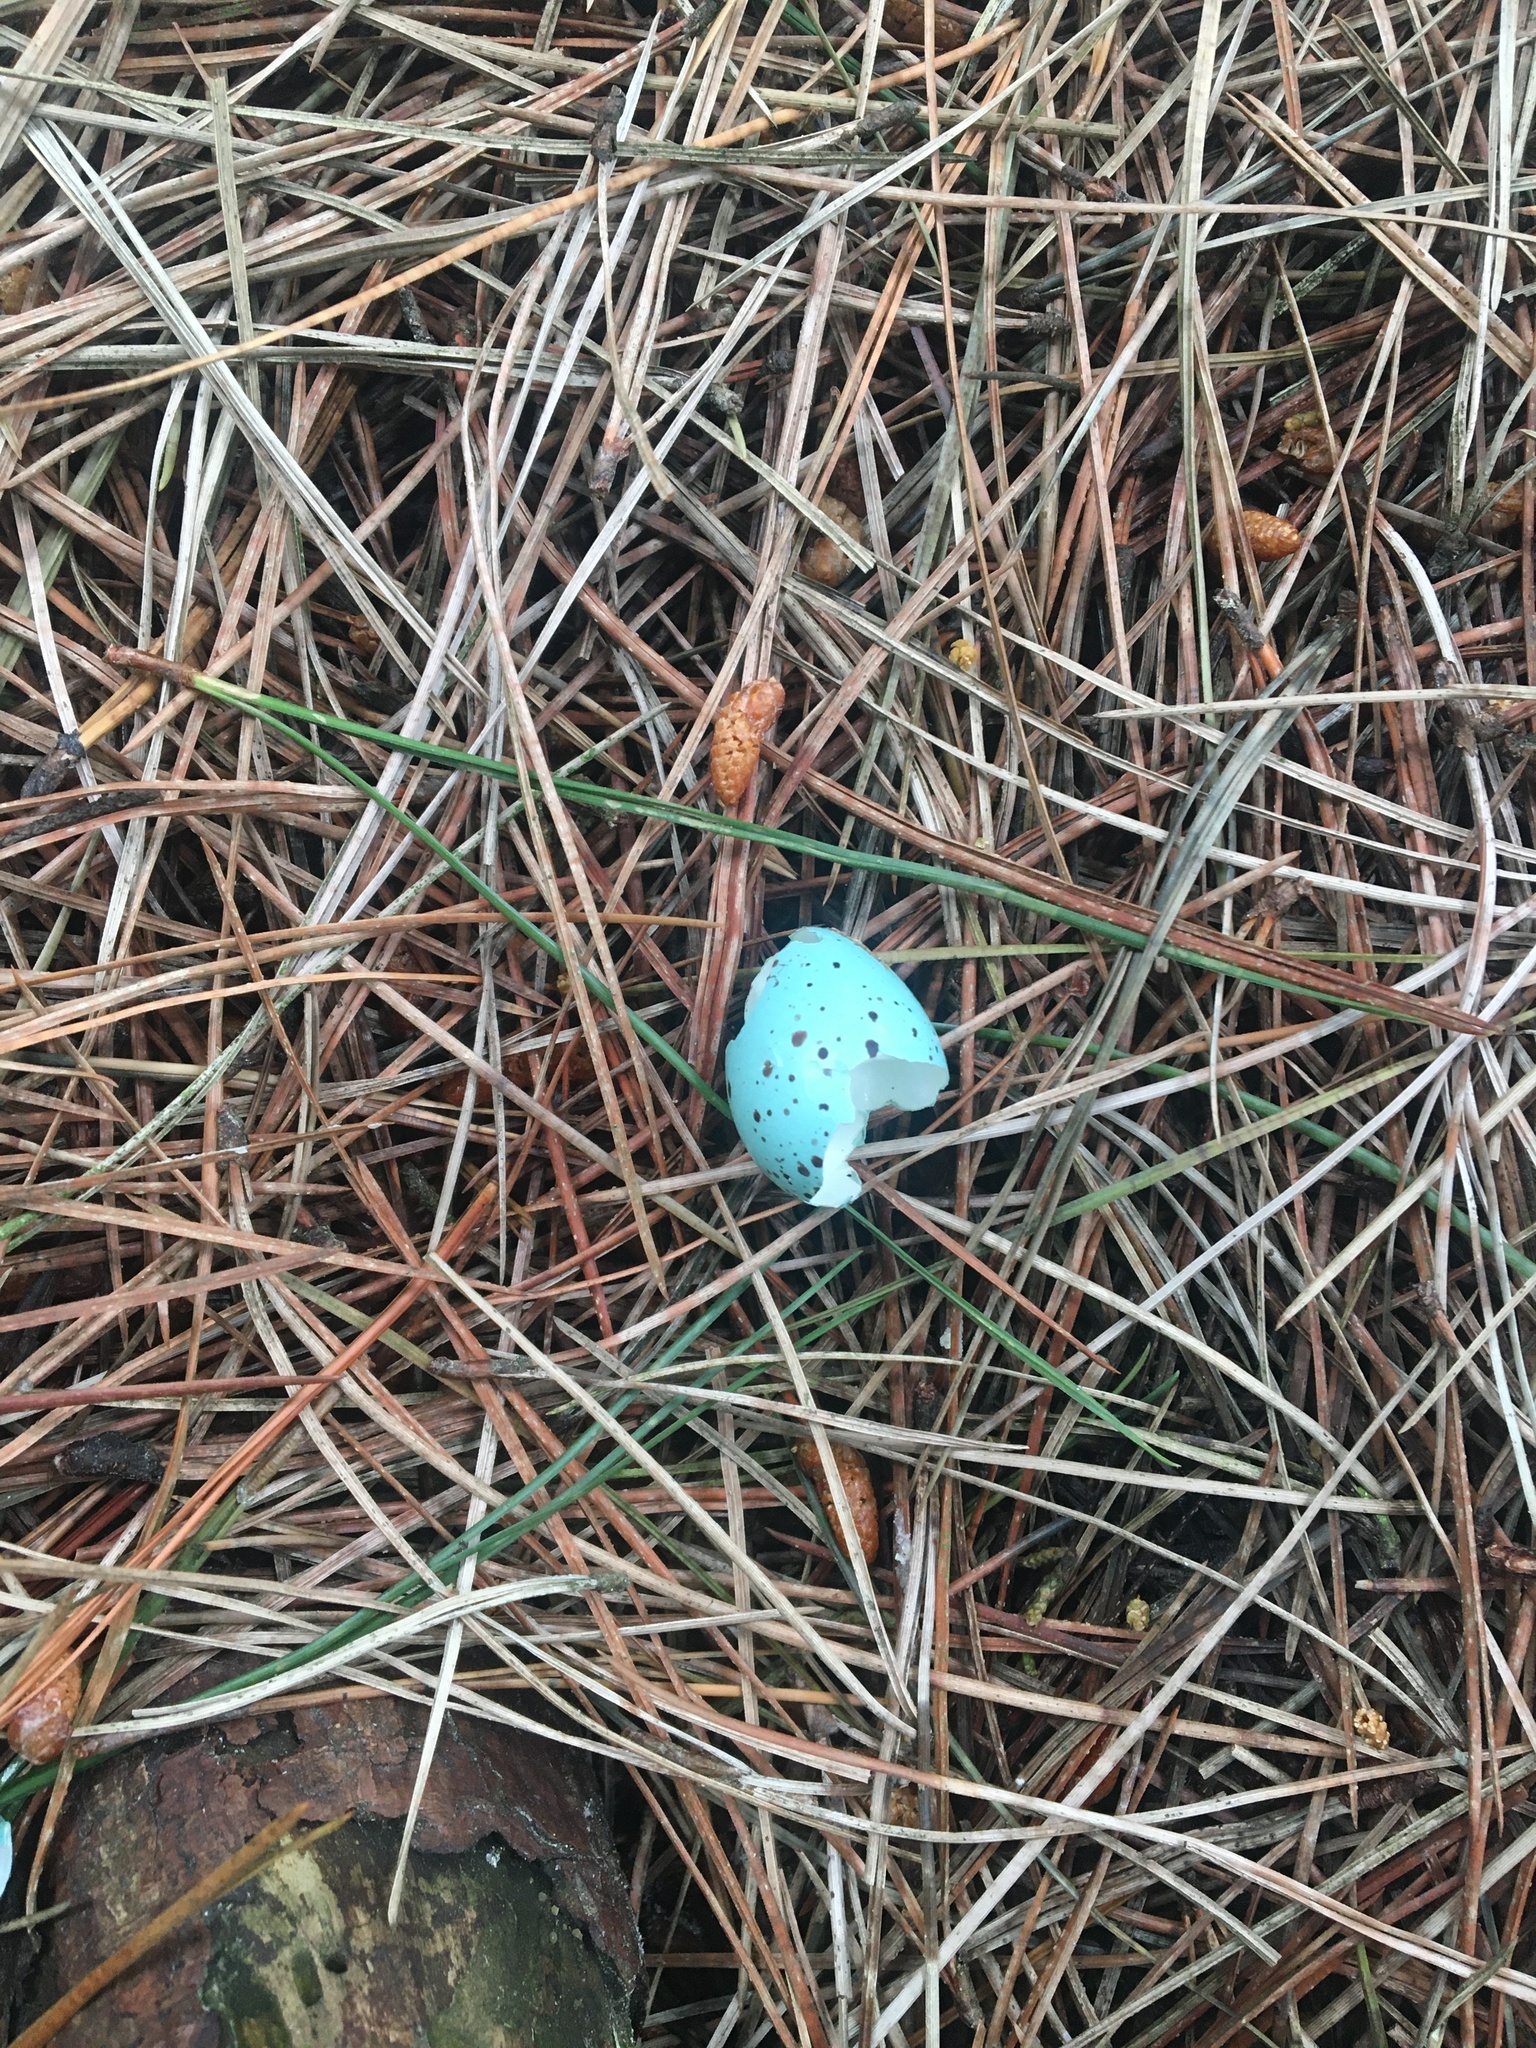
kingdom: Animalia
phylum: Chordata
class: Aves
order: Passeriformes
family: Turdidae
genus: Turdus
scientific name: Turdus philomelos
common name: Song thrush
